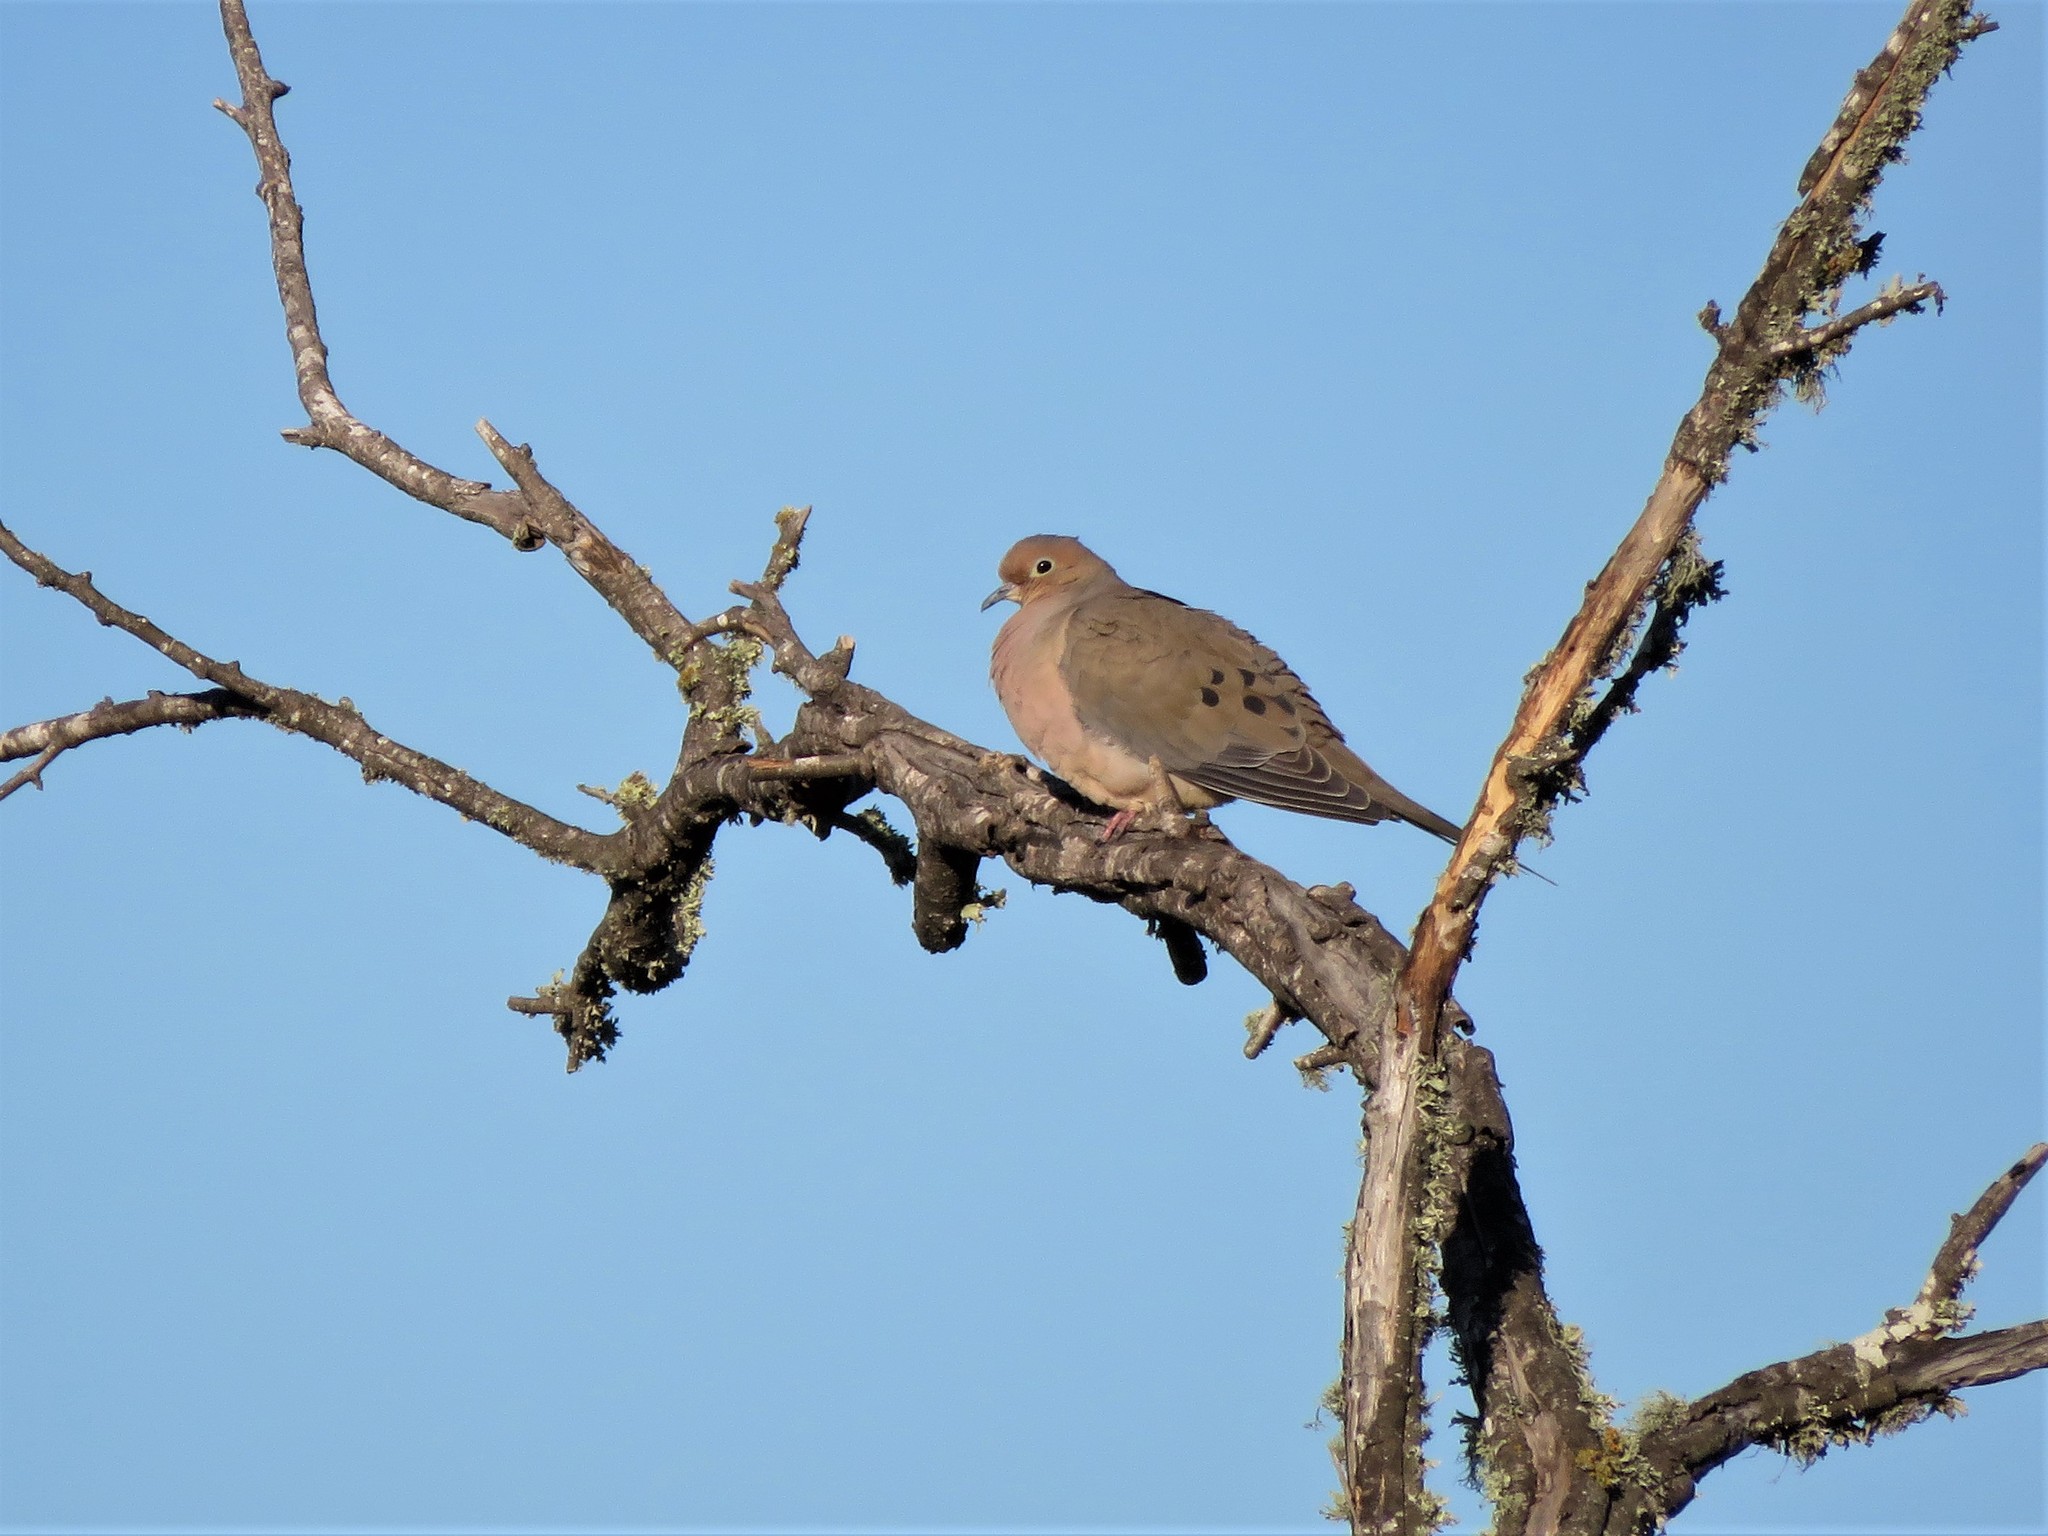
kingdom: Animalia
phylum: Chordata
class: Aves
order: Columbiformes
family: Columbidae
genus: Zenaida
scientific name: Zenaida macroura
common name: Mourning dove
